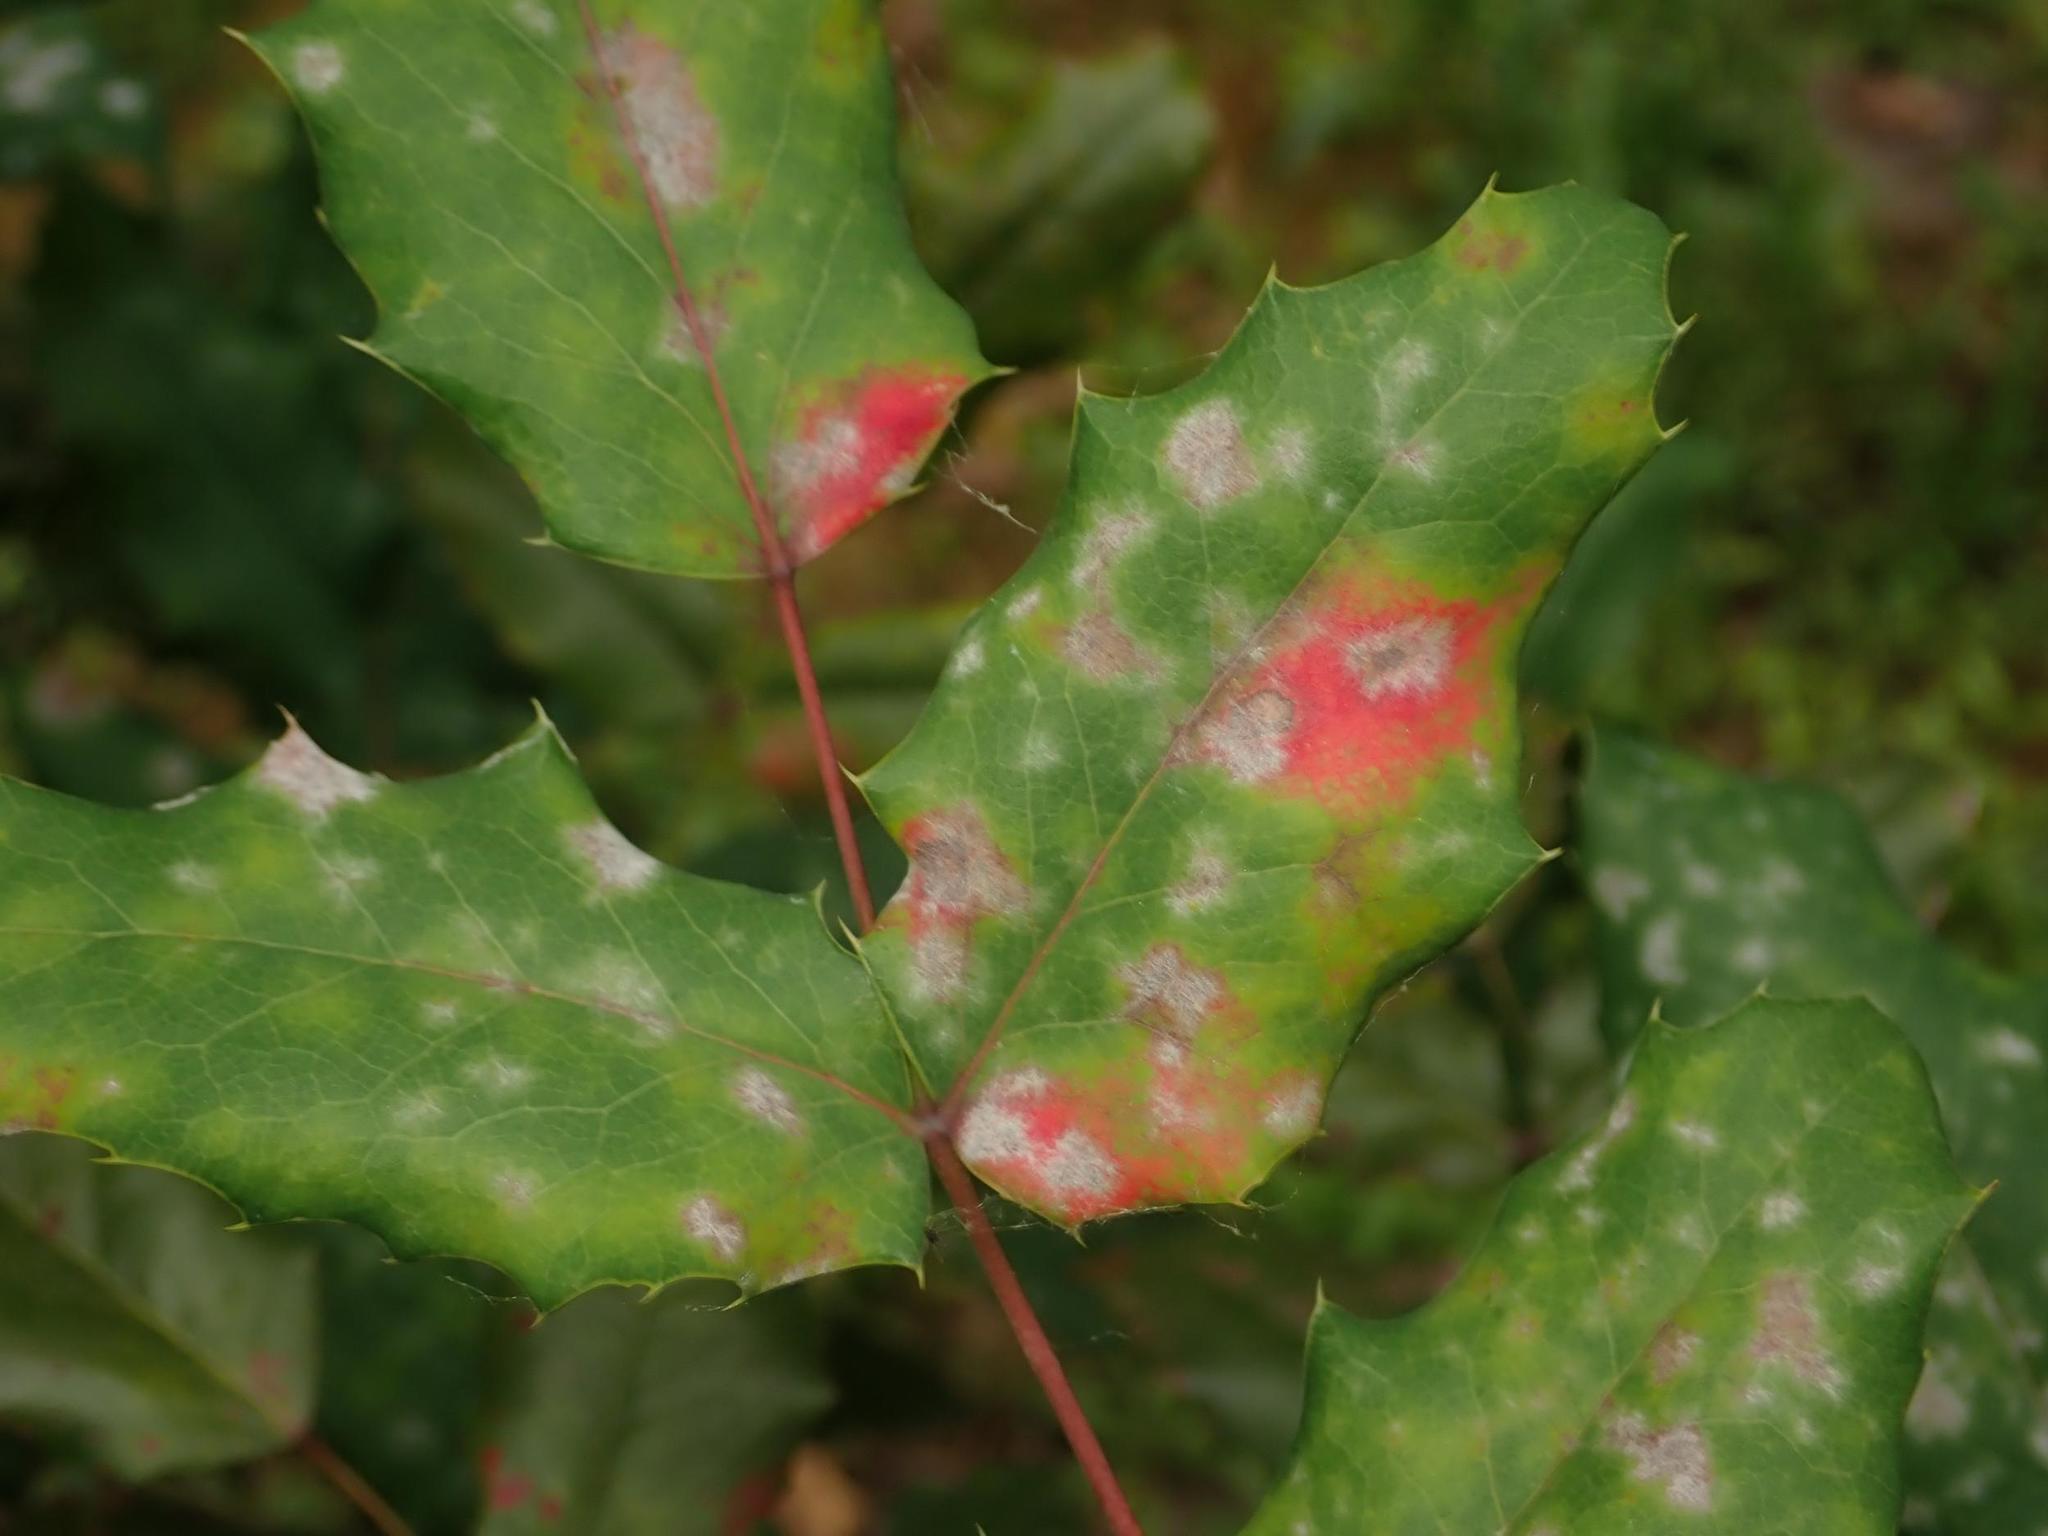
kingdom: Plantae
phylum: Tracheophyta
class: Magnoliopsida
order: Ranunculales
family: Berberidaceae
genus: Mahonia
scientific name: Mahonia aquifolium
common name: Oregon-grape
